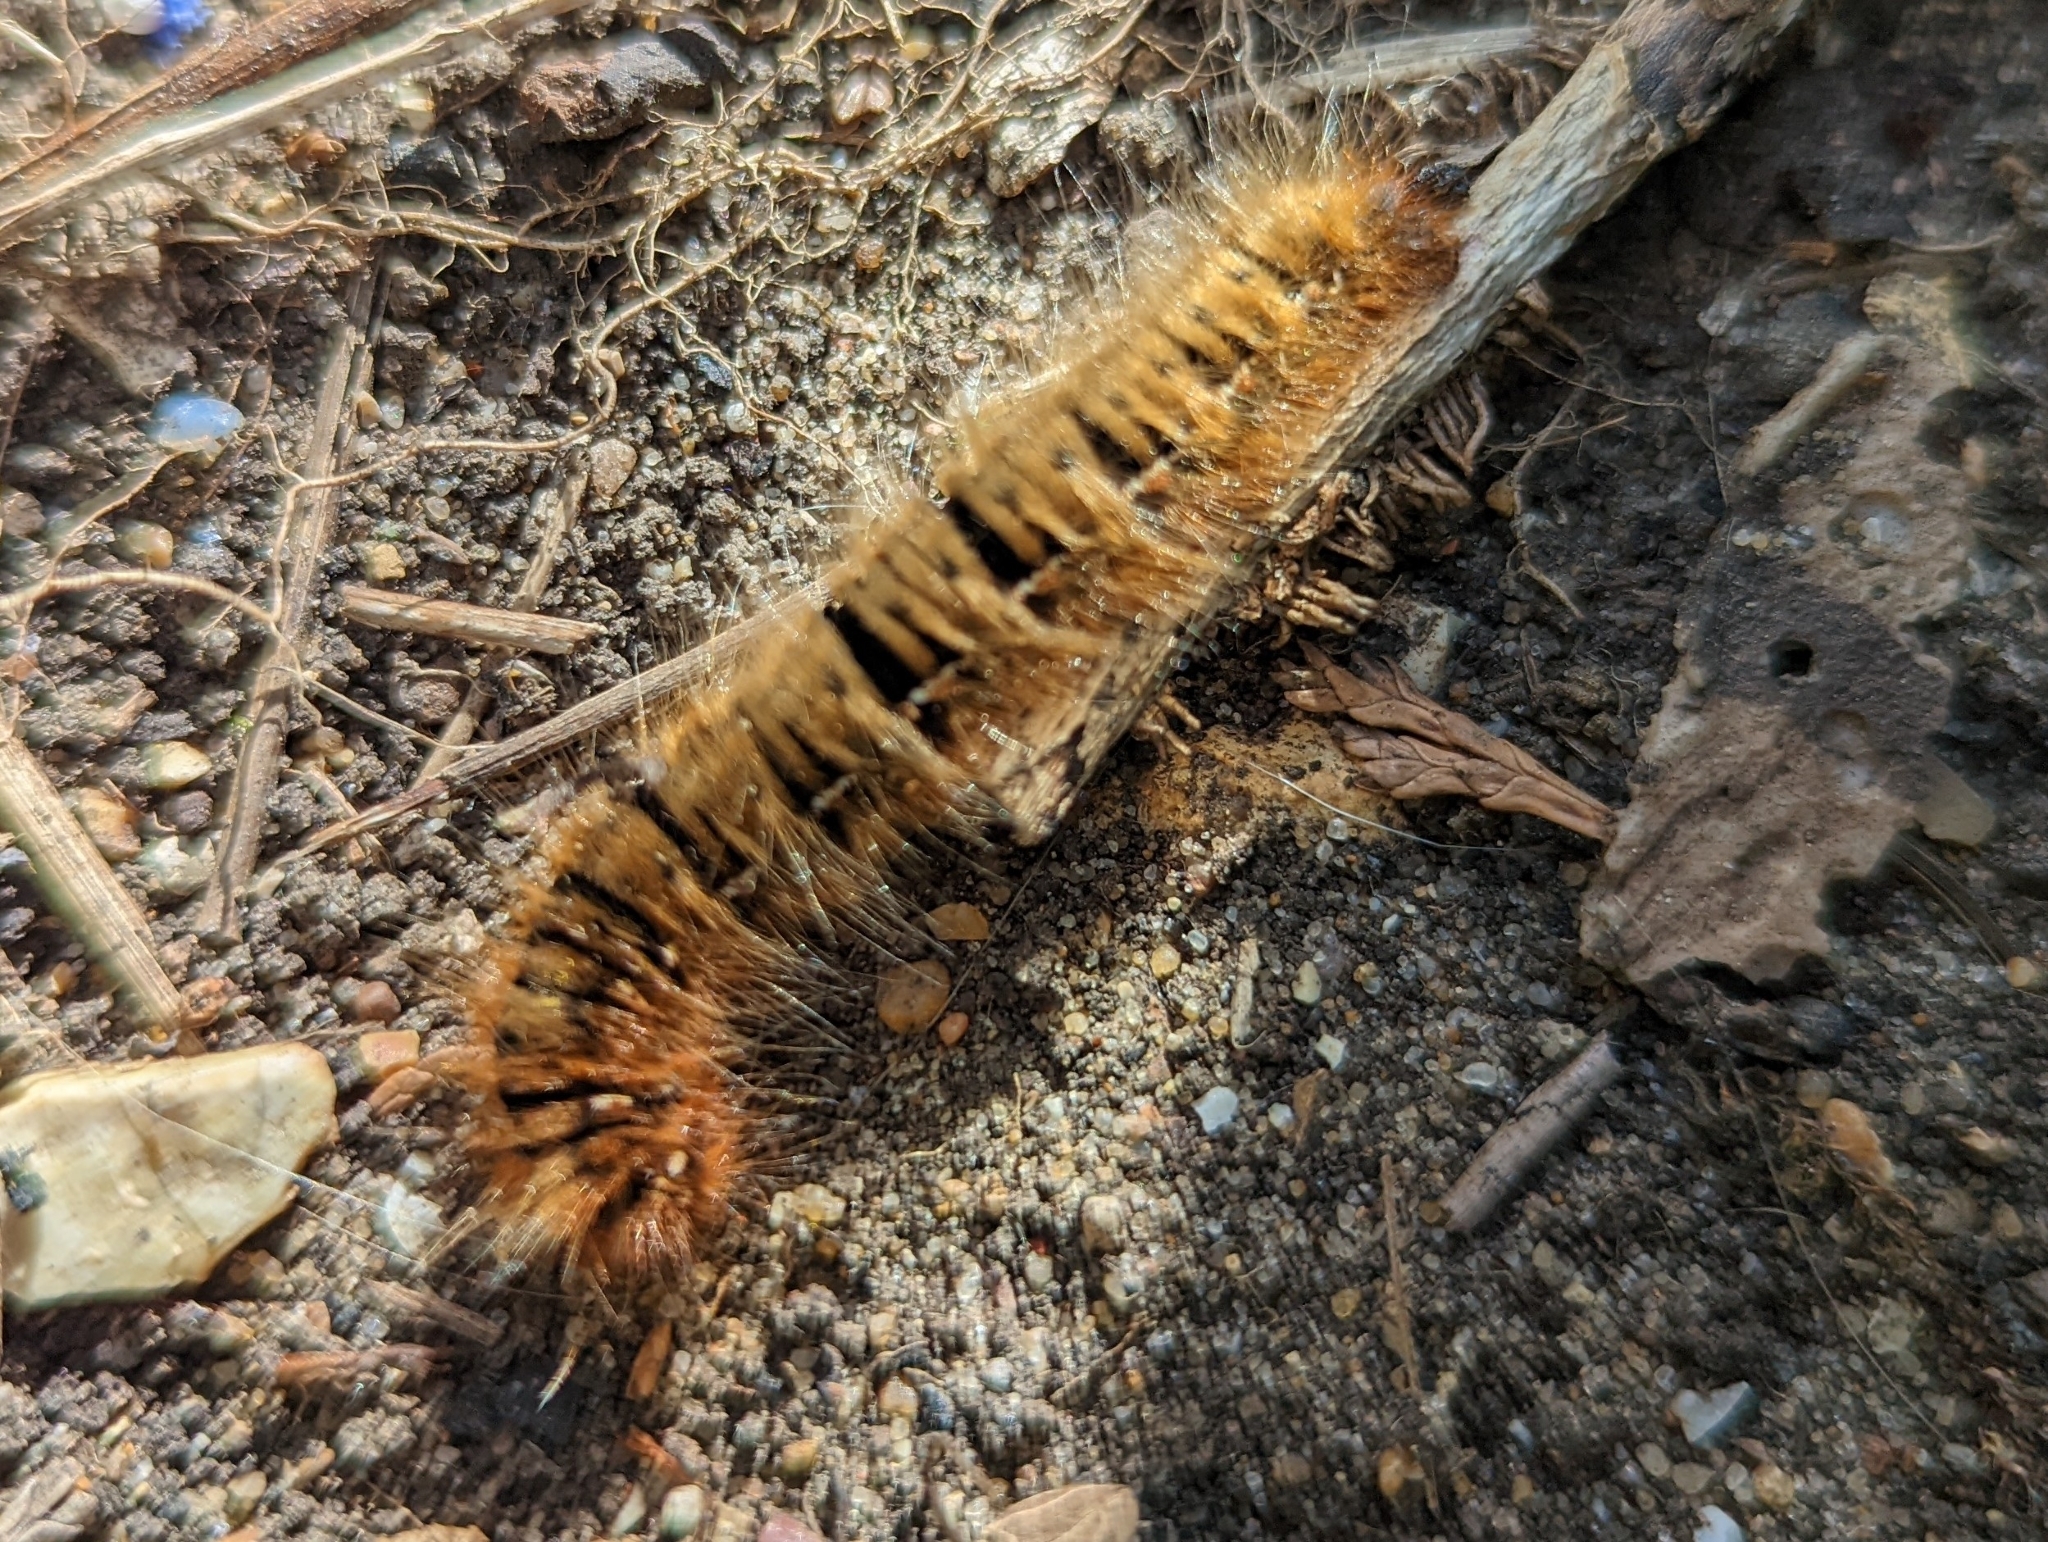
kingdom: Animalia
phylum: Arthropoda
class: Insecta
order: Lepidoptera
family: Lasiocampidae
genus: Lasiocampa
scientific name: Lasiocampa quercus
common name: Oak eggar
